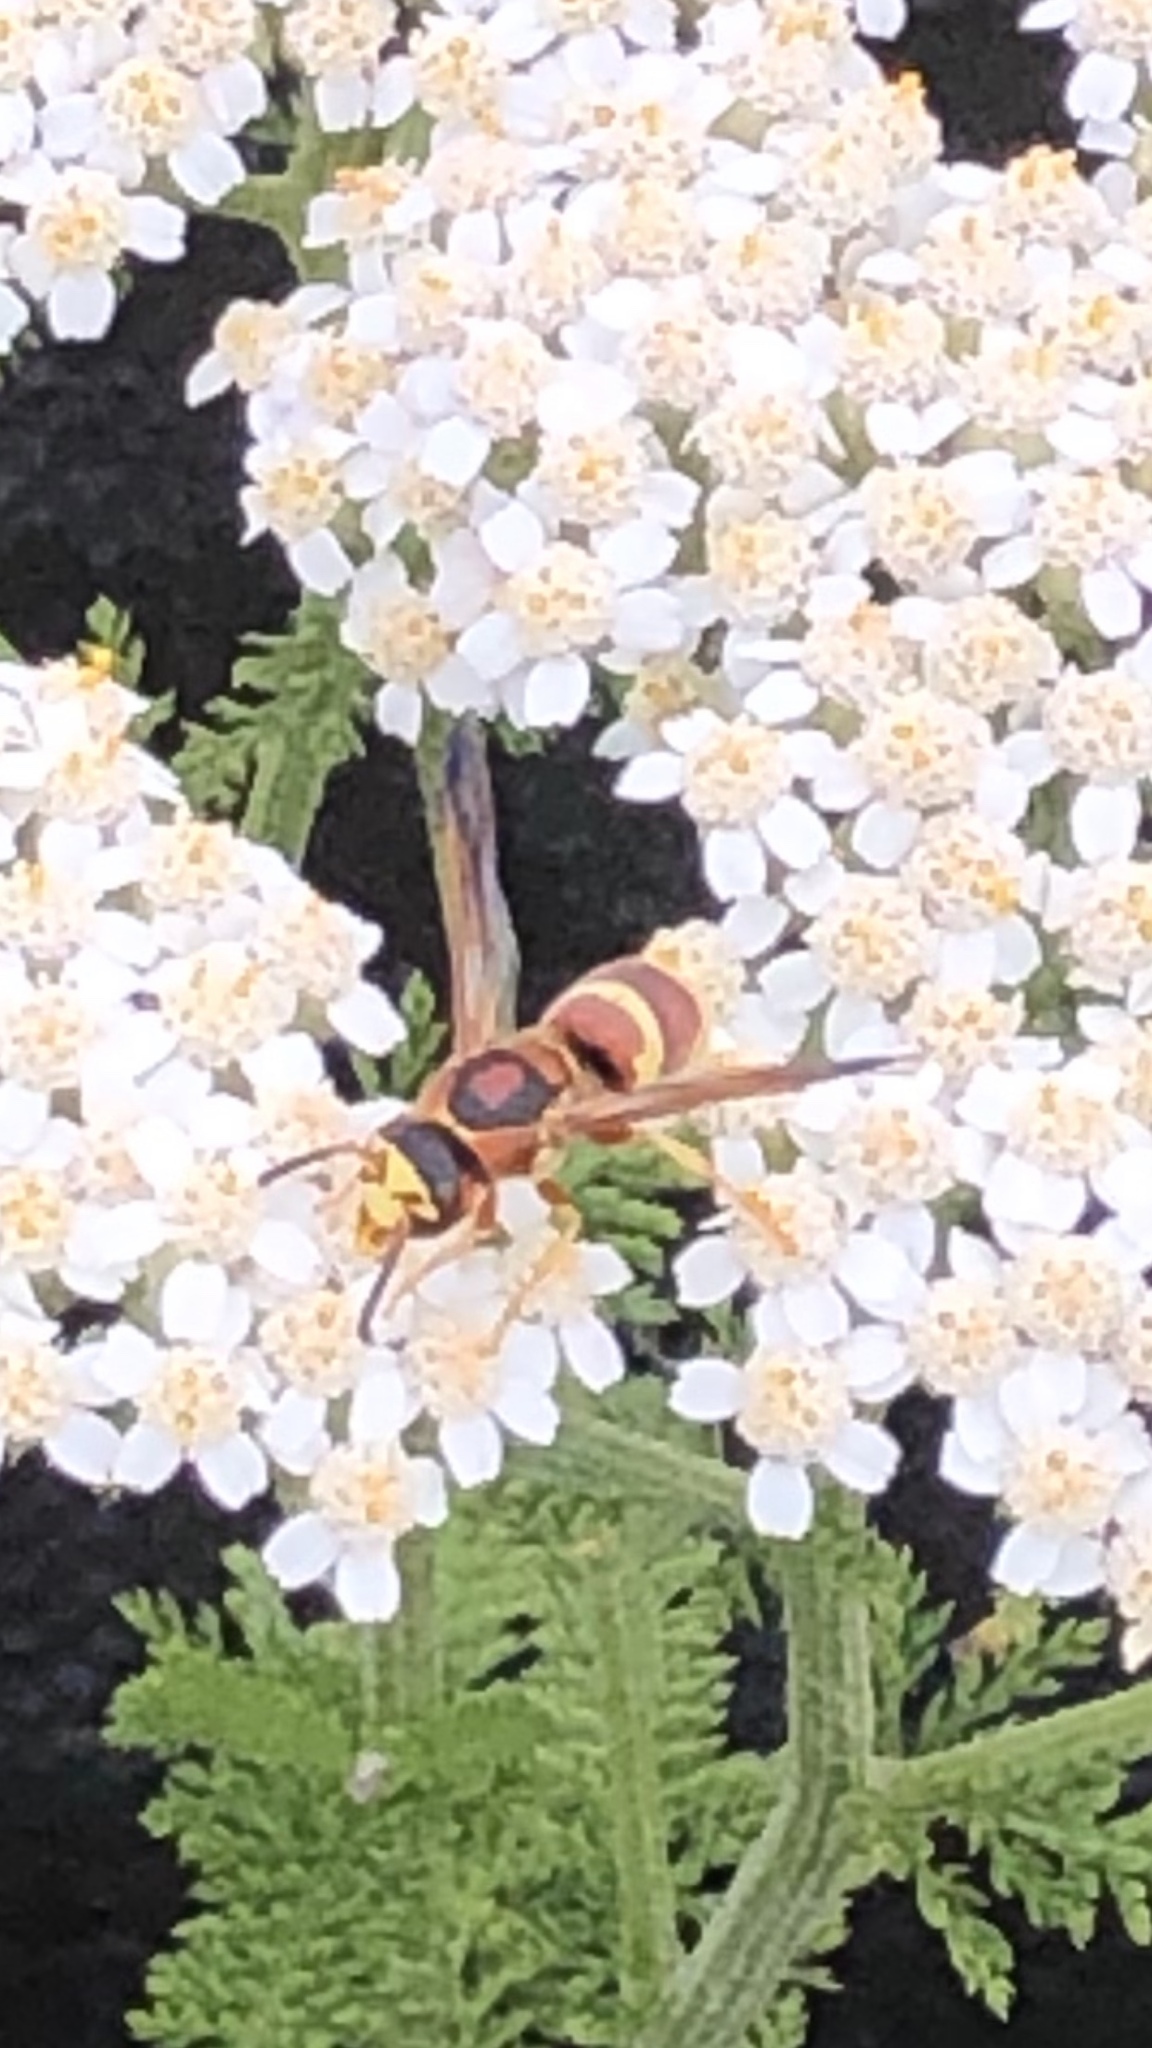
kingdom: Animalia
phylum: Arthropoda
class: Insecta
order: Hymenoptera
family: Eumenidae
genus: Euodynerus
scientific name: Euodynerus pratensis
